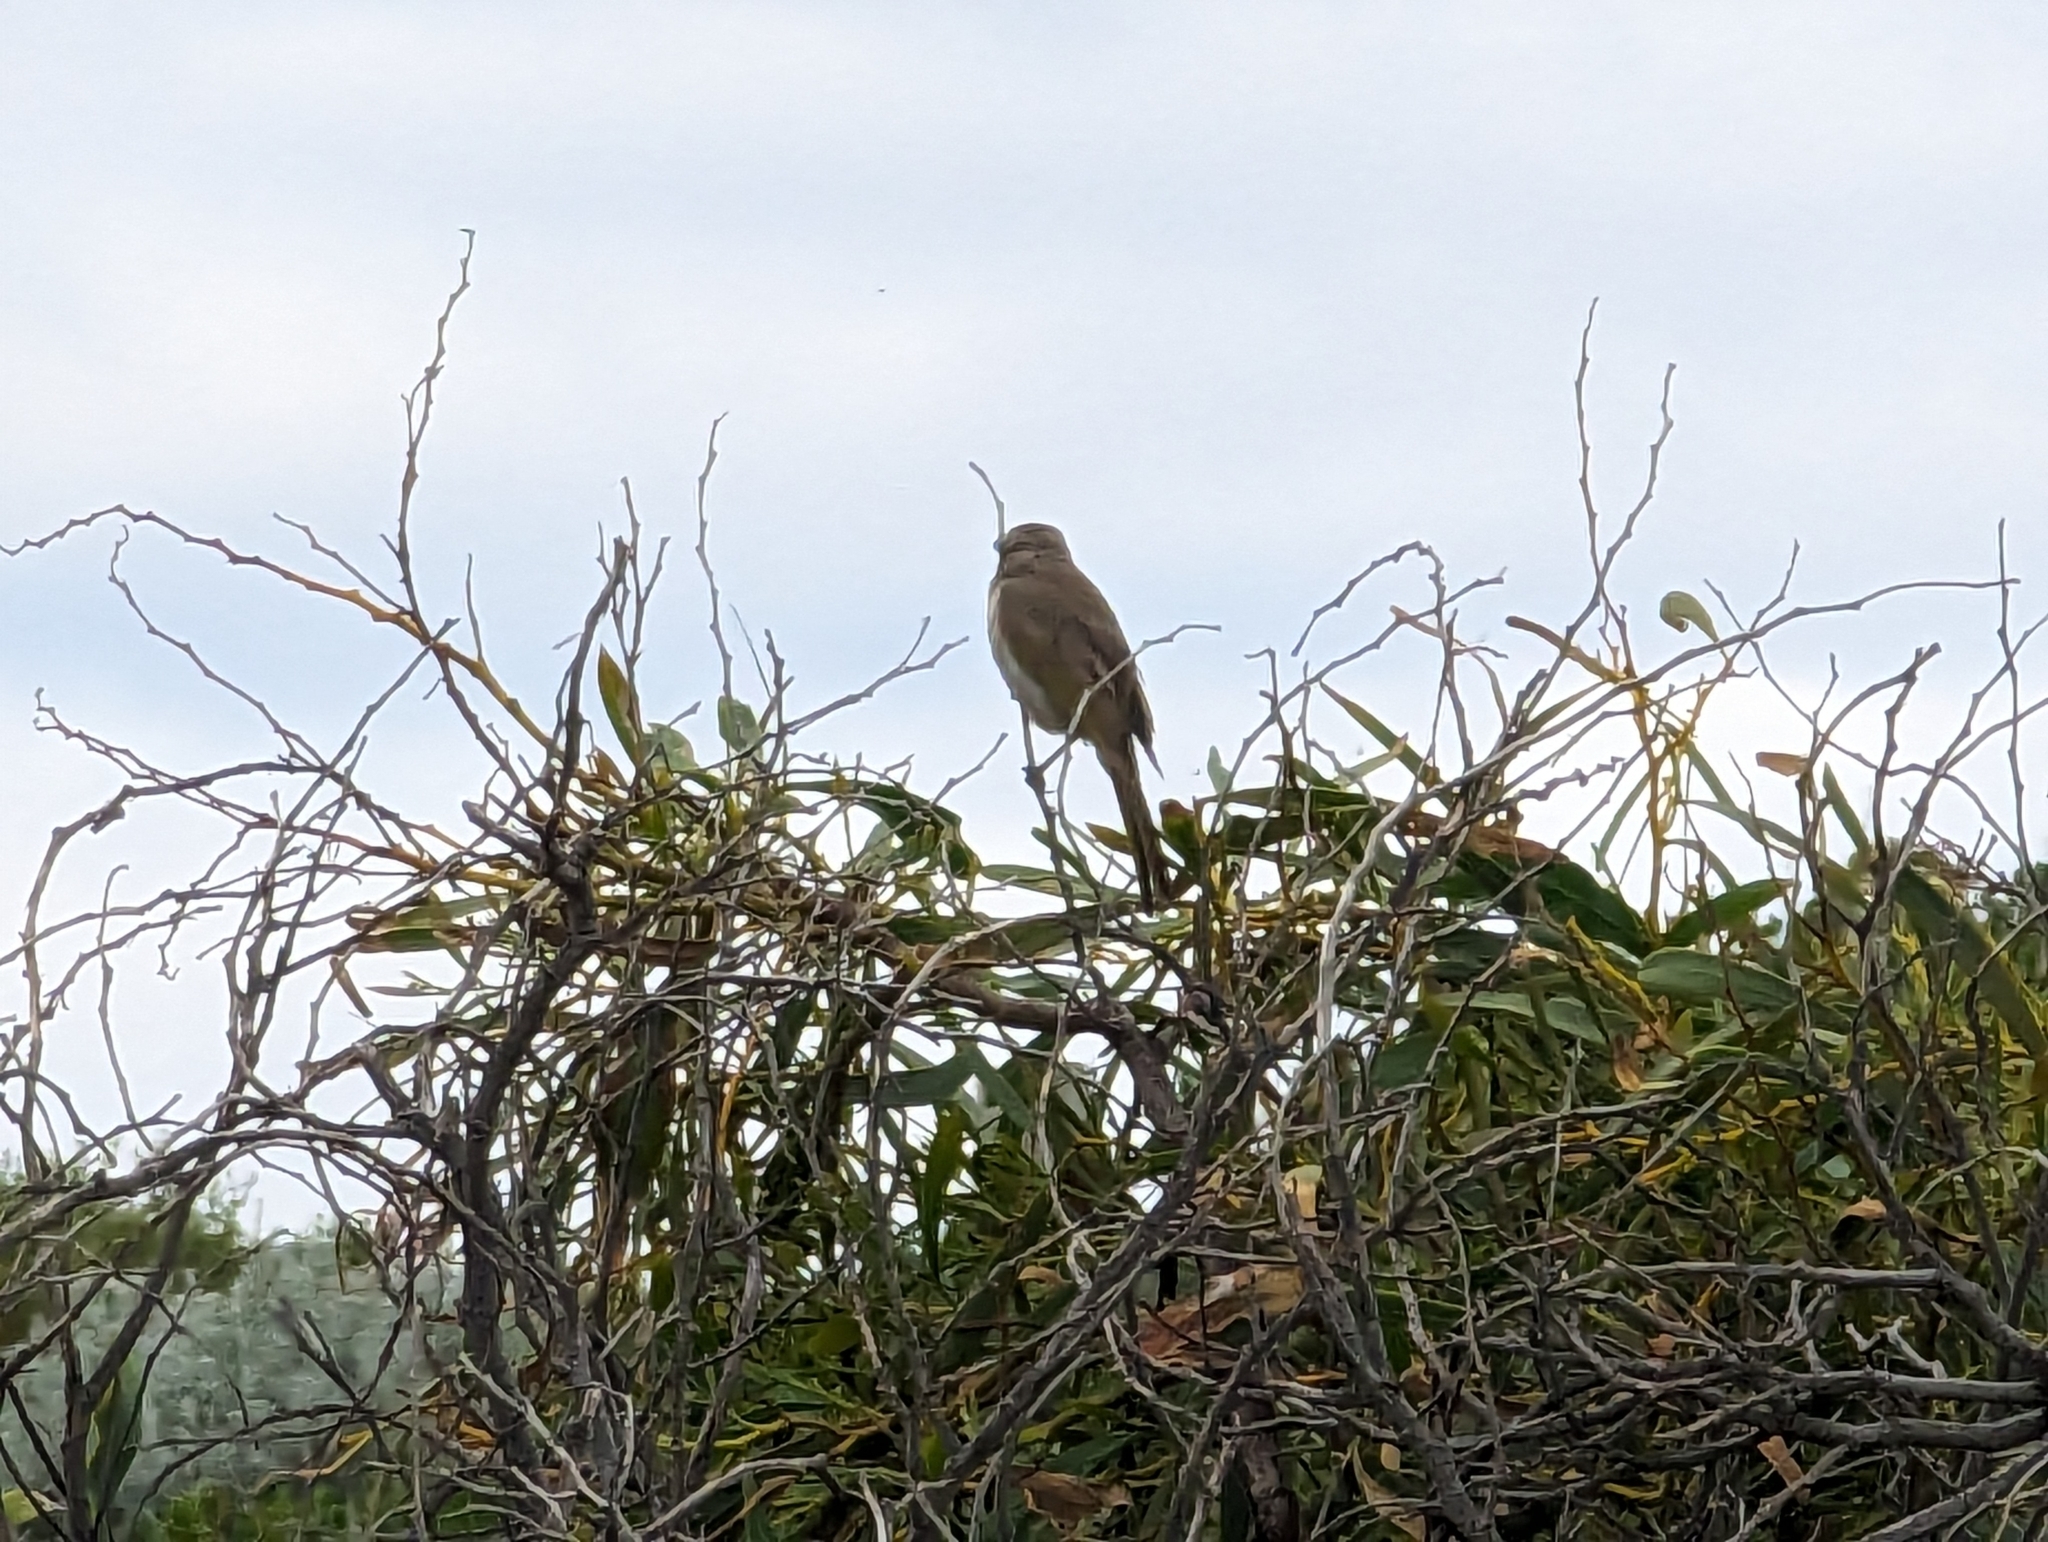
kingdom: Animalia
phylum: Chordata
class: Aves
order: Passeriformes
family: Meliphagidae
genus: Gavicalis
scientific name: Gavicalis virescens
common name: Singing honeyeater
